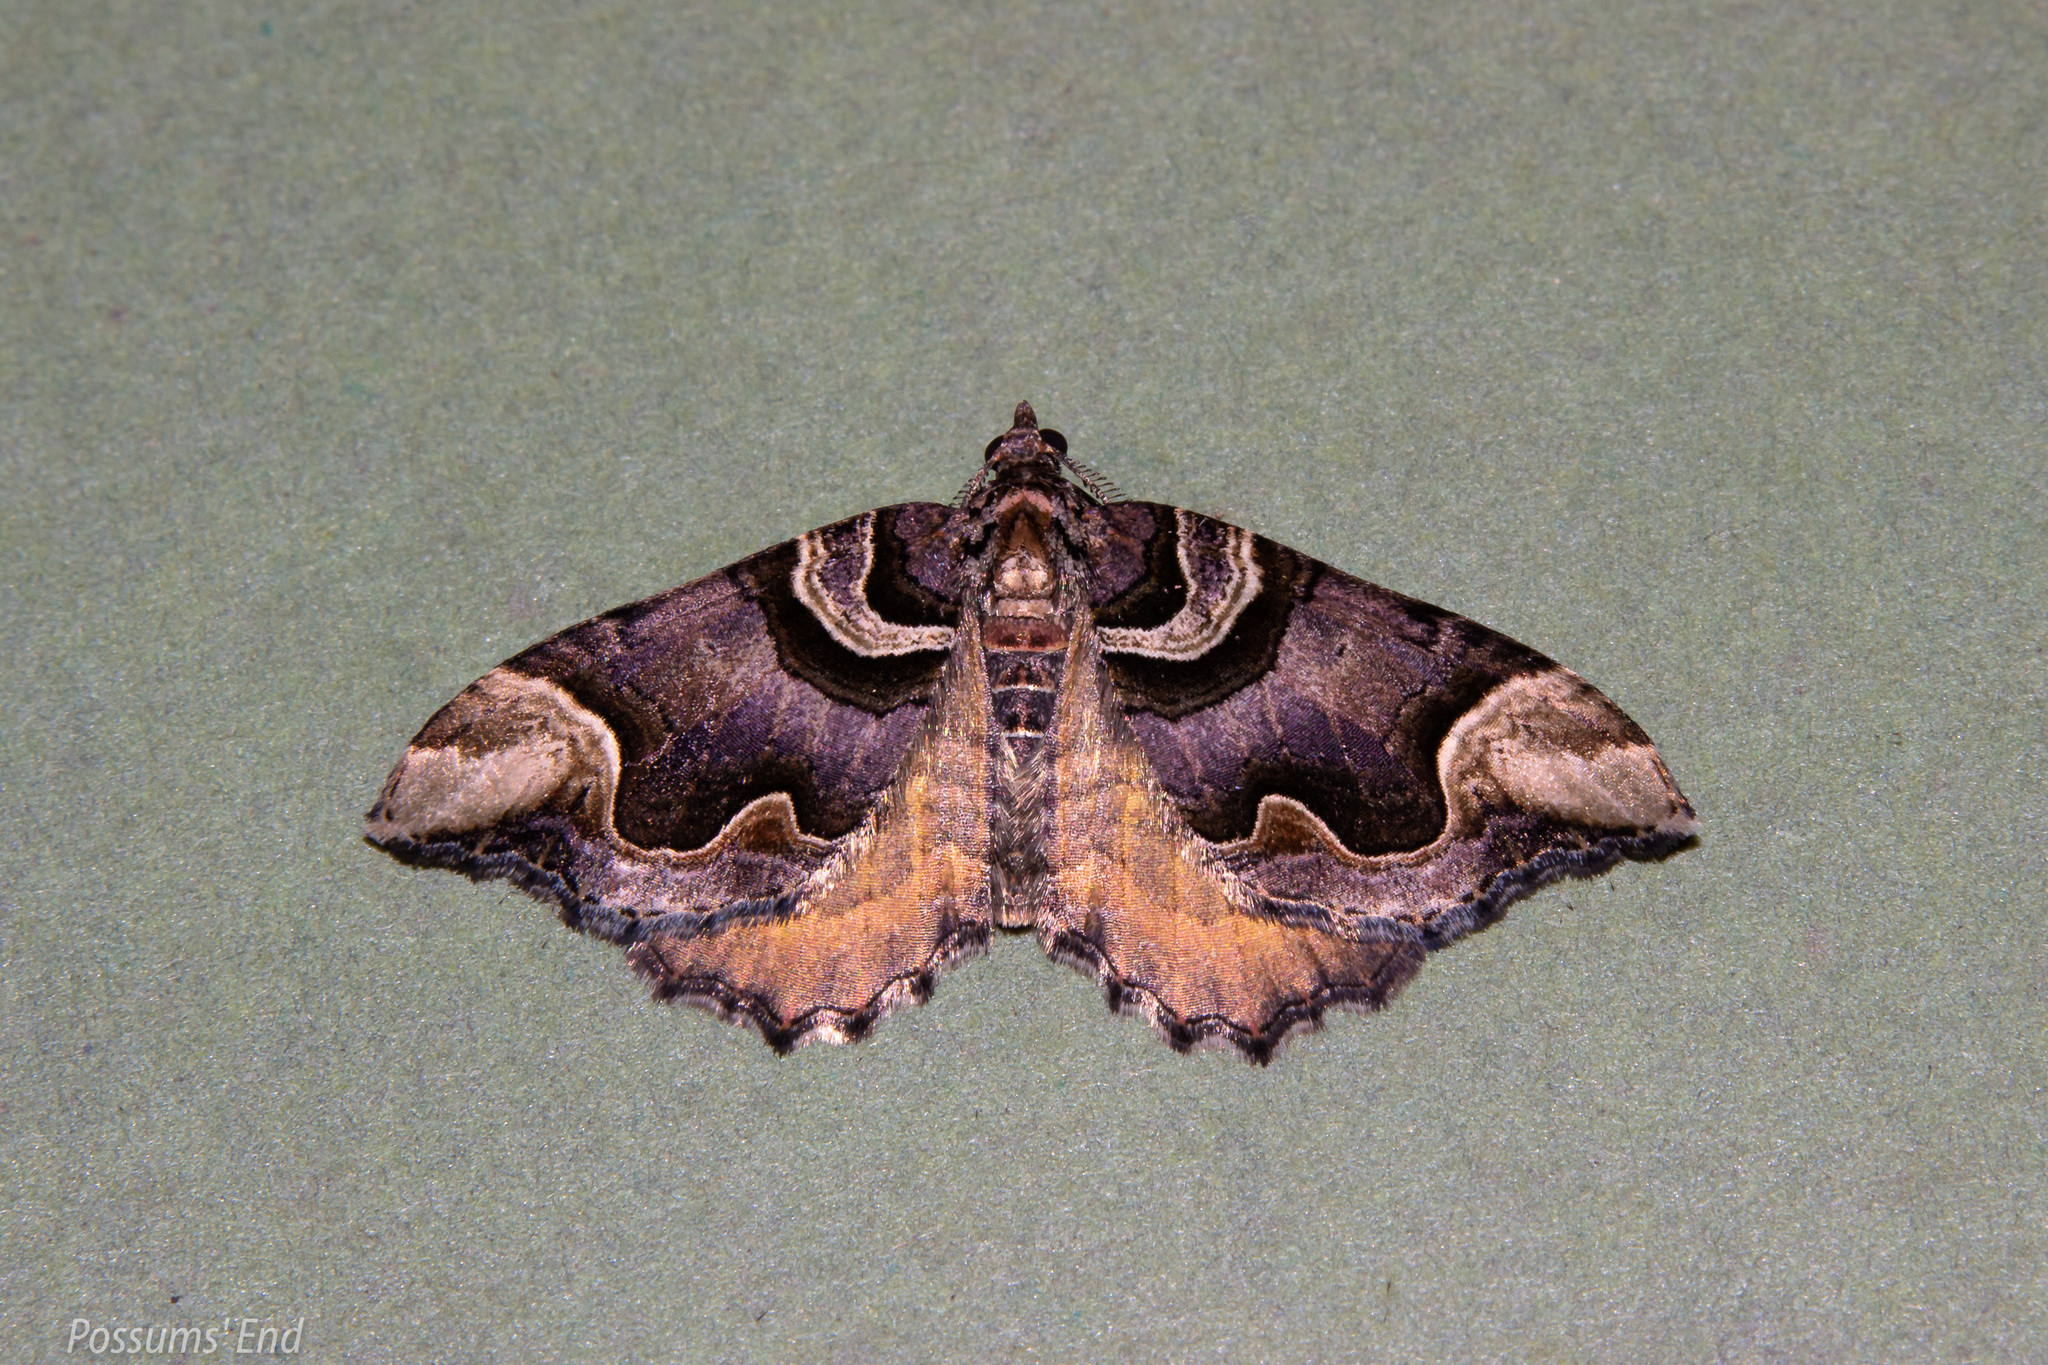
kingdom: Animalia
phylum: Arthropoda
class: Insecta
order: Lepidoptera
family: Geometridae
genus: Asaphodes
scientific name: Asaphodes chlamydota
